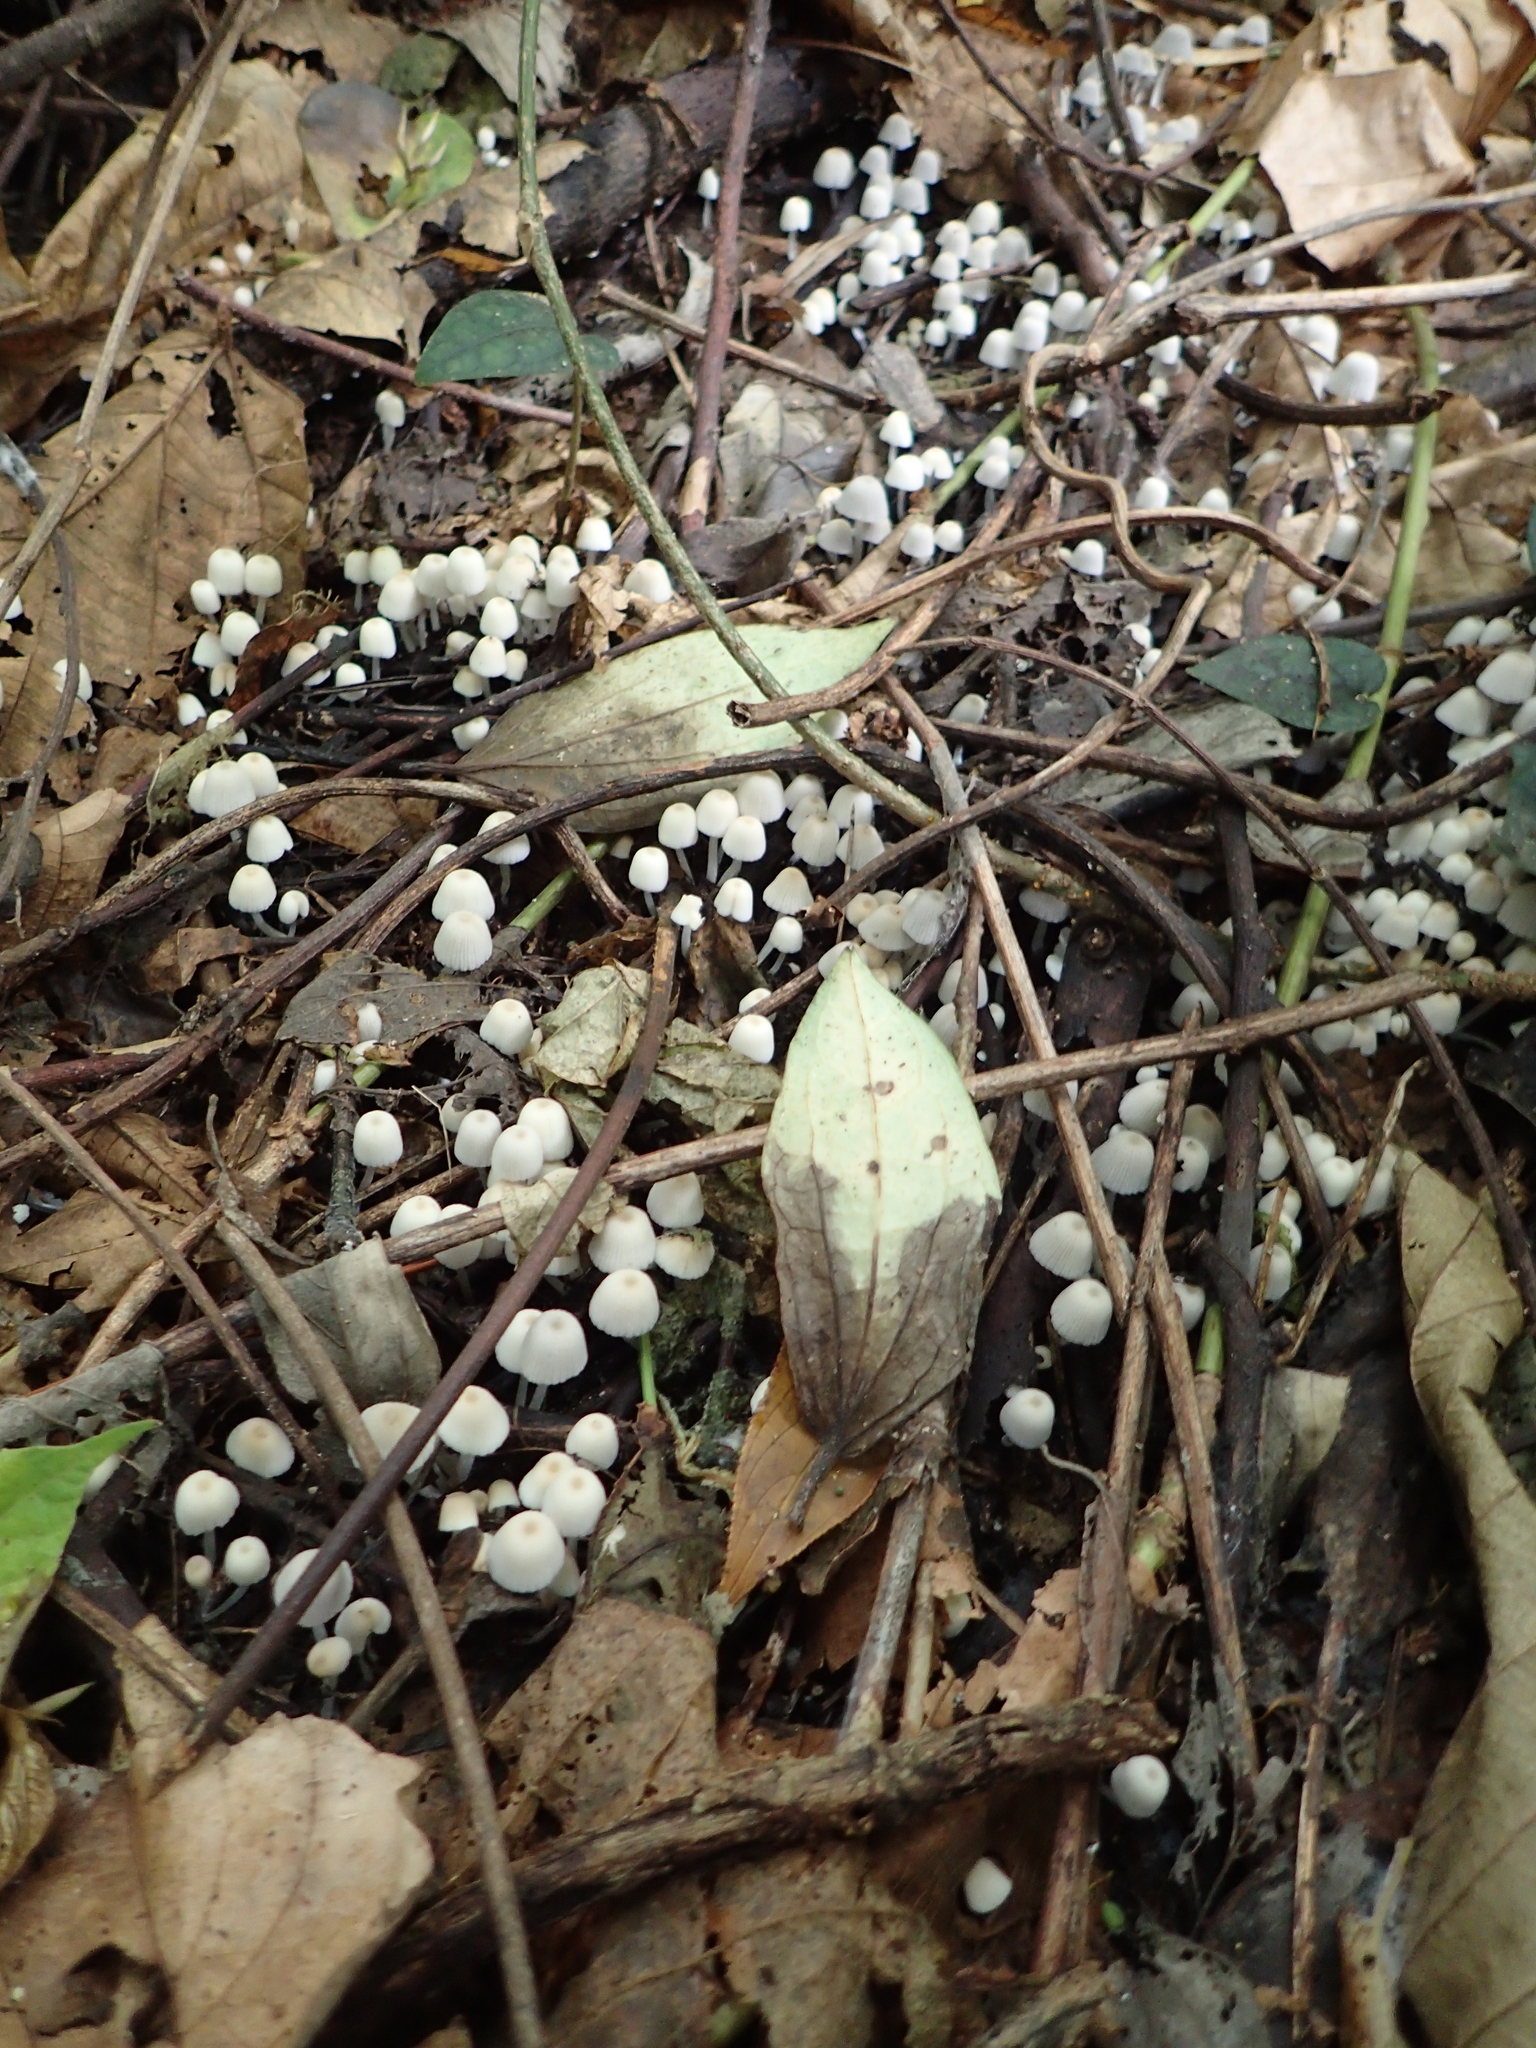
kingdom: Fungi
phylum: Basidiomycota
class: Agaricomycetes
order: Agaricales
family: Psathyrellaceae
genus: Coprinellus
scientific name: Coprinellus disseminatus
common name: Fairies' bonnets
